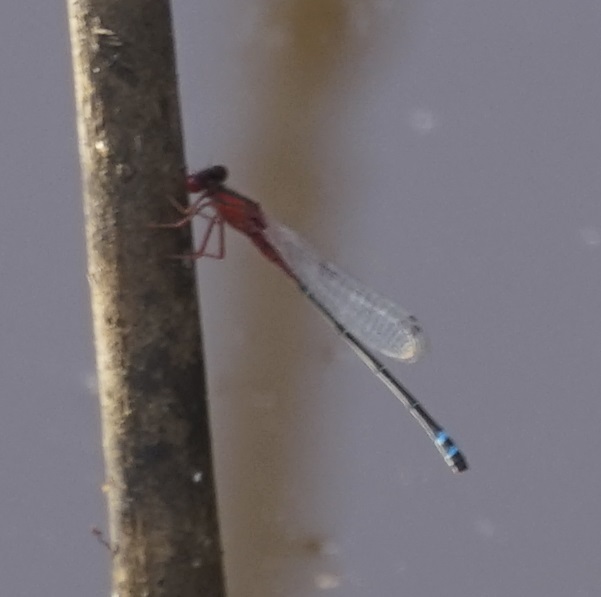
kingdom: Animalia
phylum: Arthropoda
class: Insecta
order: Odonata
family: Coenagrionidae
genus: Xanthagrion
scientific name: Xanthagrion erythroneurum
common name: Red and blue damsel
